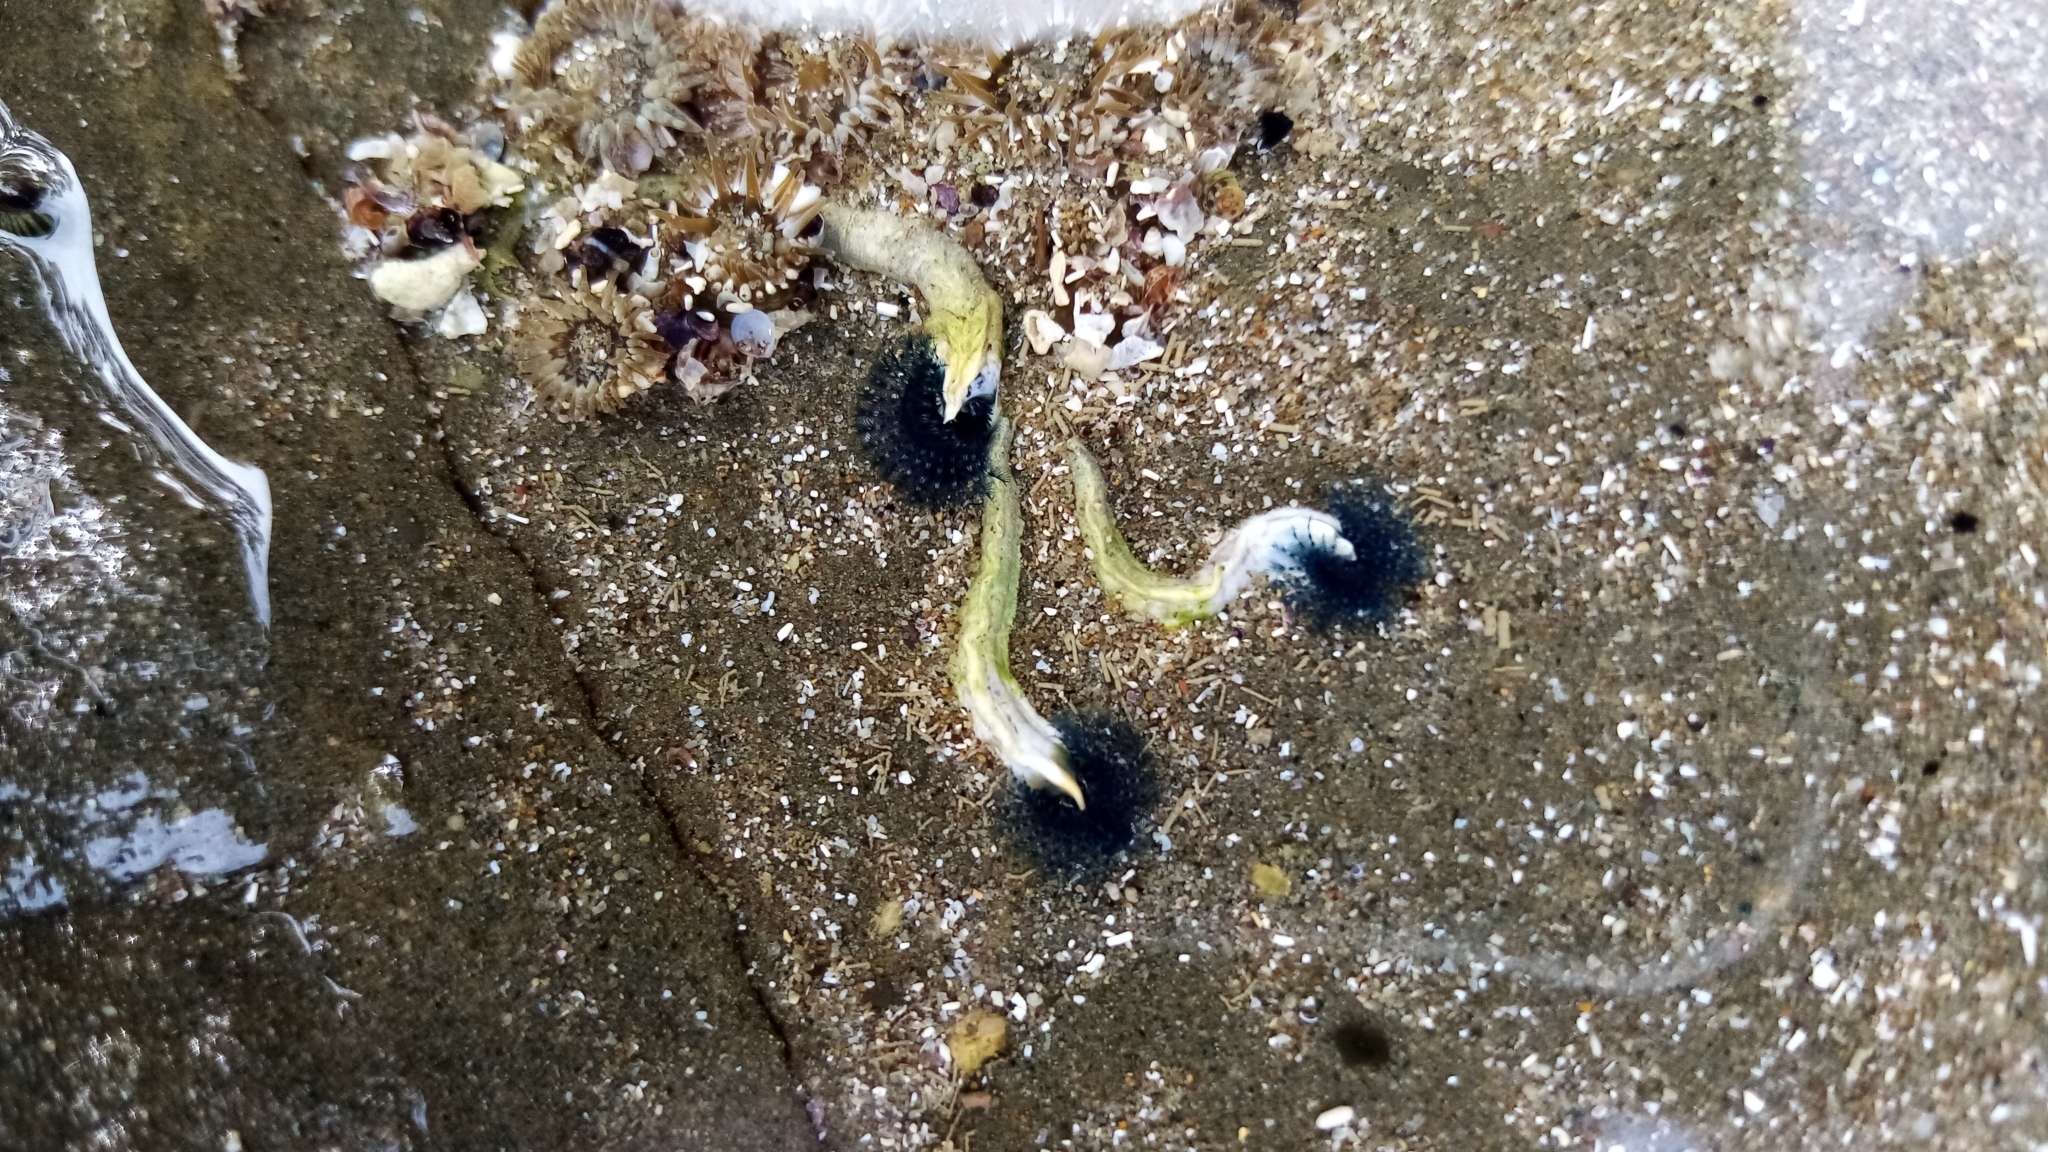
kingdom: Animalia
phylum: Annelida
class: Polychaeta
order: Sabellida
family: Serpulidae
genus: Spirobranchus
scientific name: Spirobranchus cariniferus
